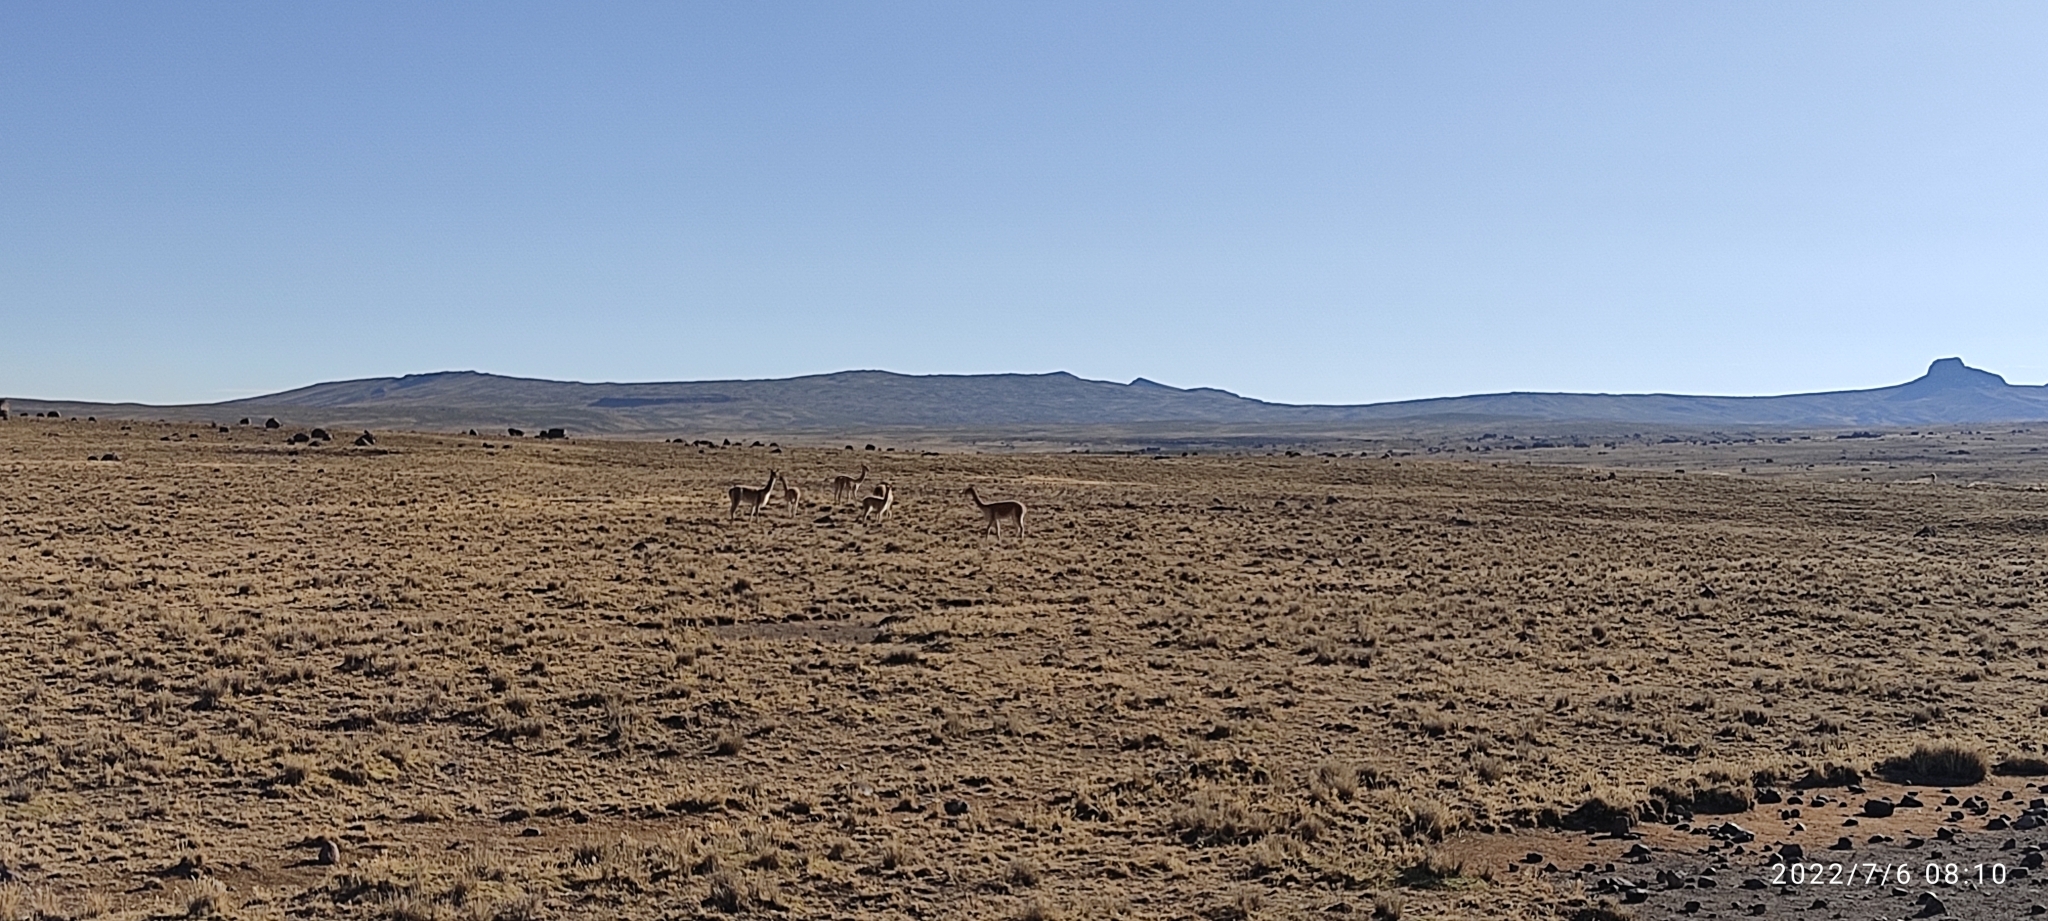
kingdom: Animalia
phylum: Chordata
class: Mammalia
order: Artiodactyla
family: Camelidae
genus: Vicugna
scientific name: Vicugna vicugna
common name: Vicugna
